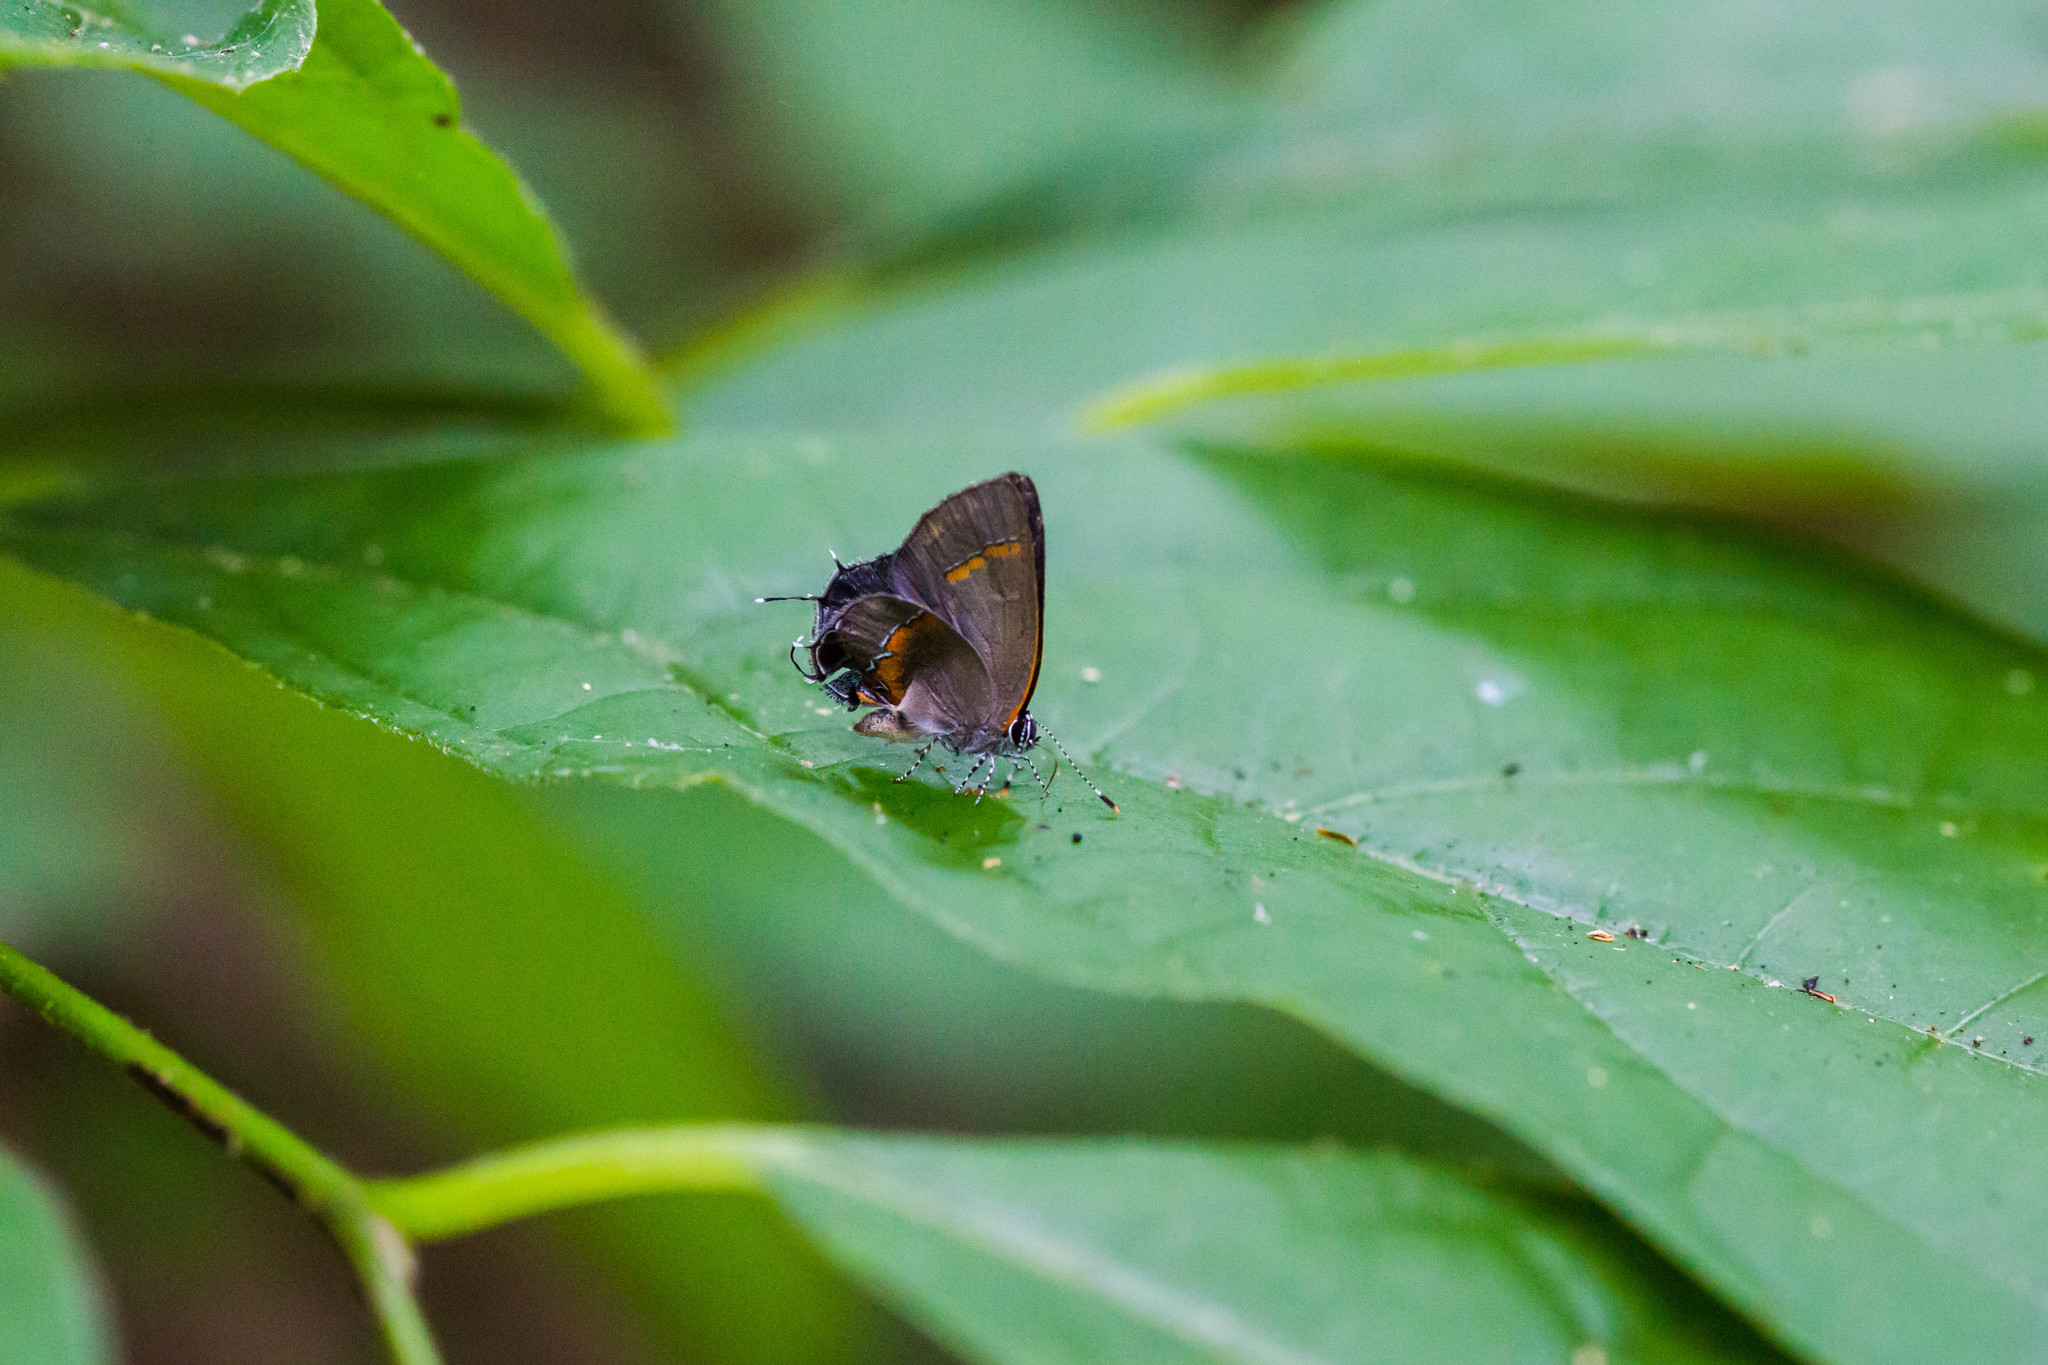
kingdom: Animalia
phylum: Arthropoda
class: Insecta
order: Lepidoptera
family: Lycaenidae
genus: Calycopis
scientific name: Calycopis cecrops
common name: Red-banded hairstreak
